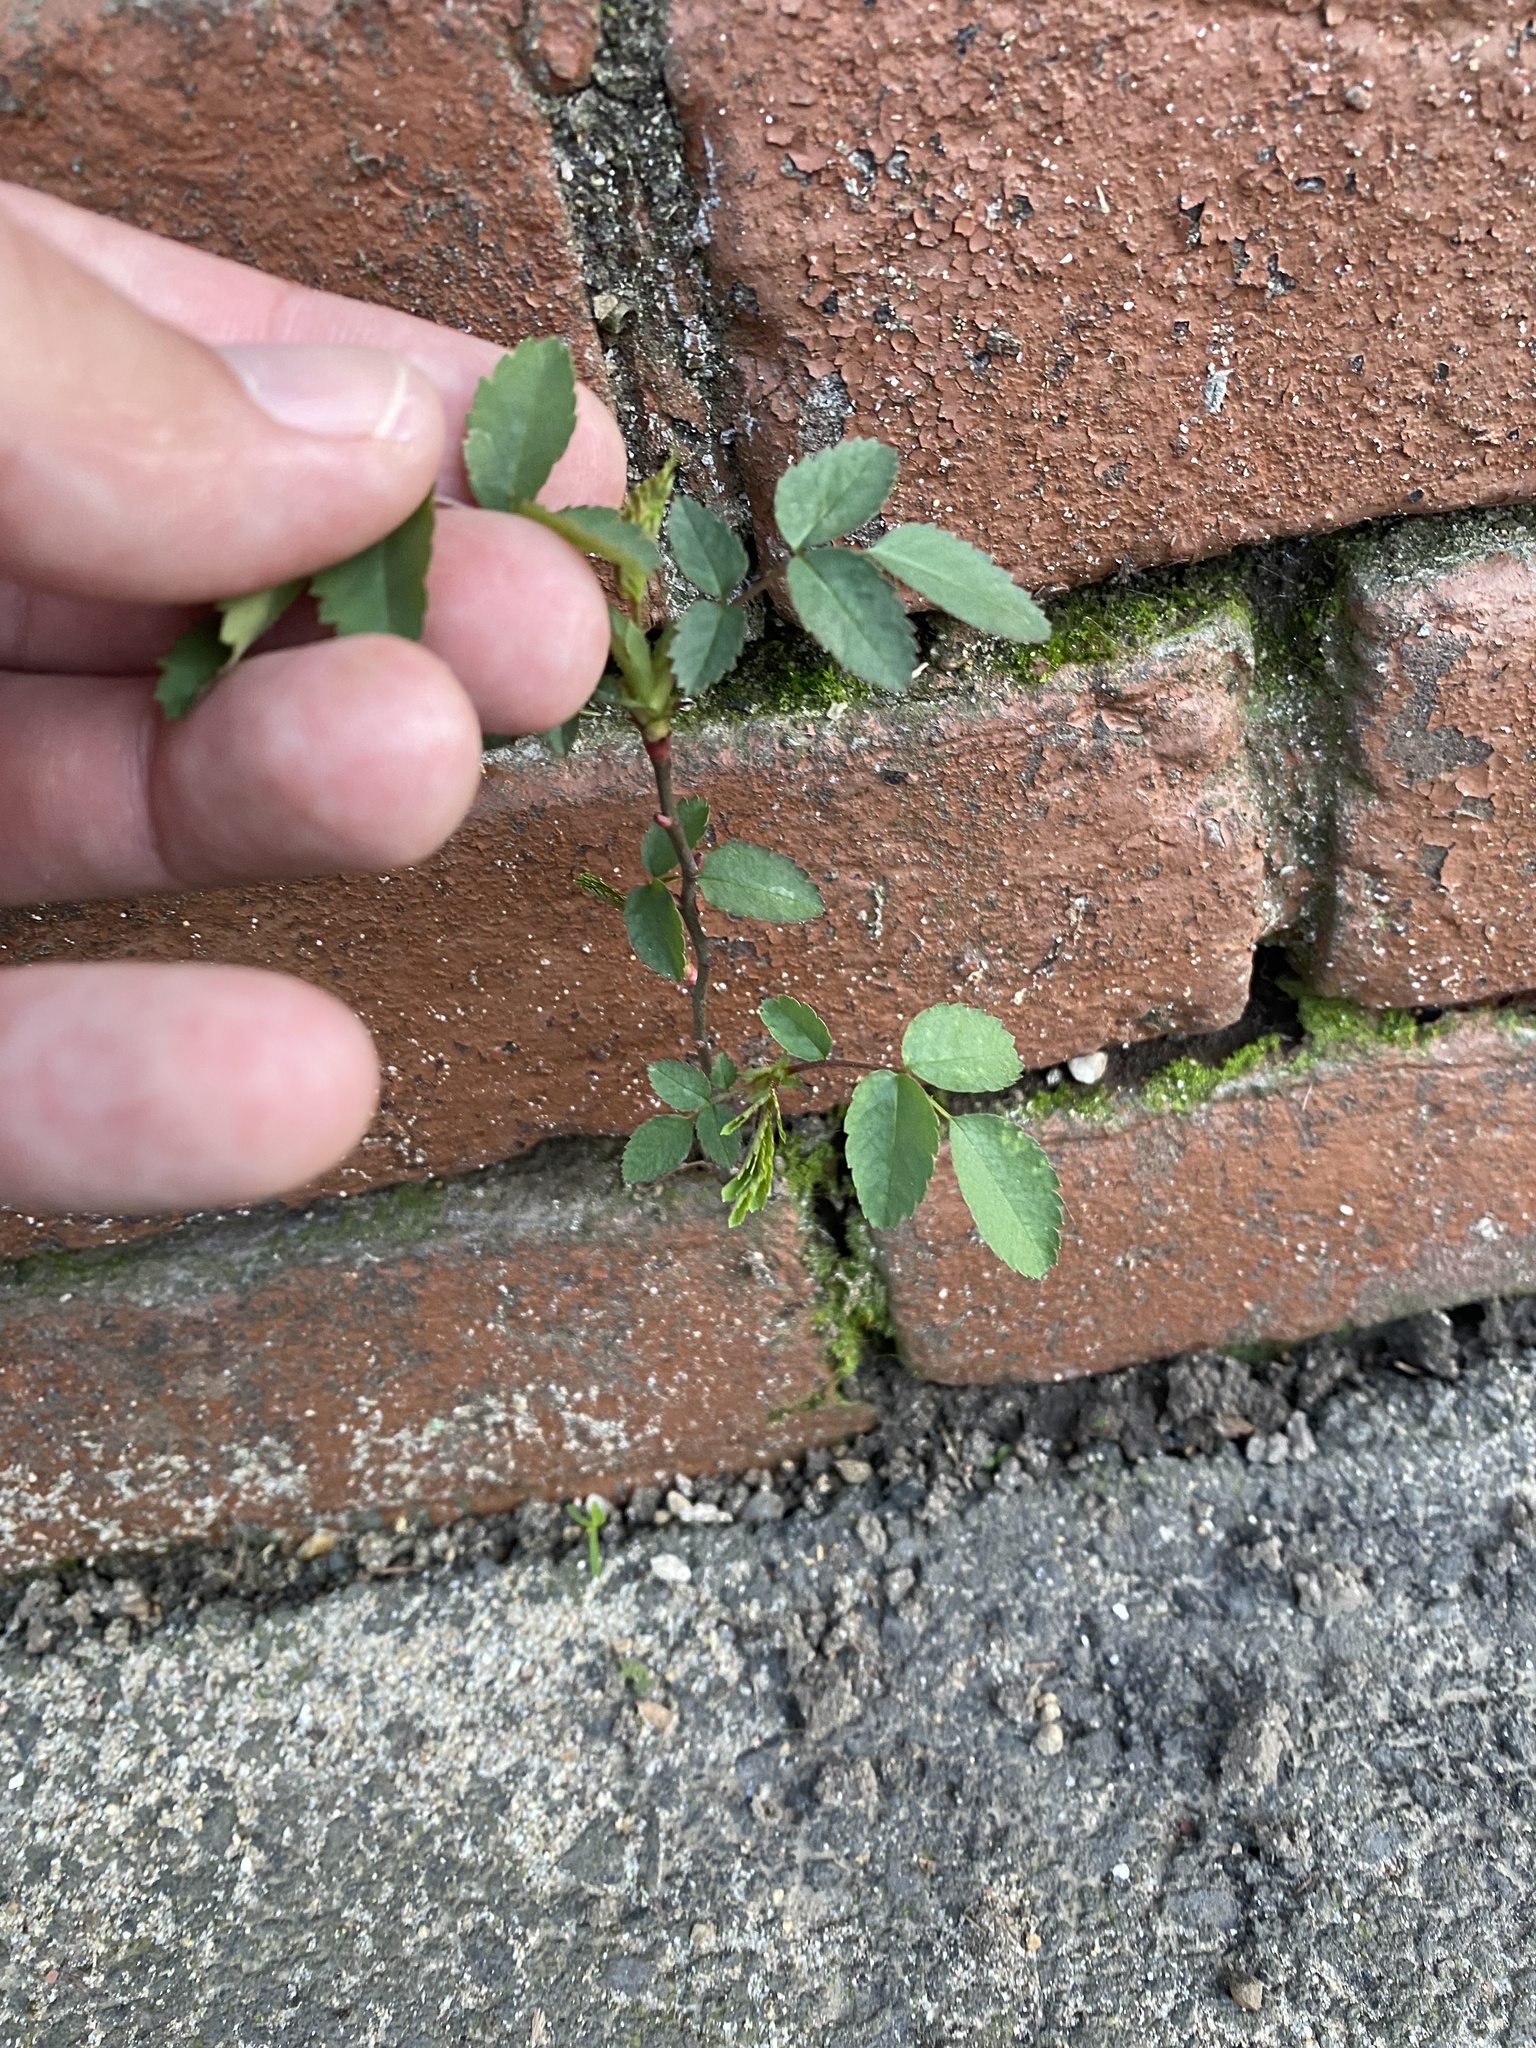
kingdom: Plantae
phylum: Tracheophyta
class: Magnoliopsida
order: Rosales
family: Rosaceae
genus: Rosa
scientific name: Rosa
